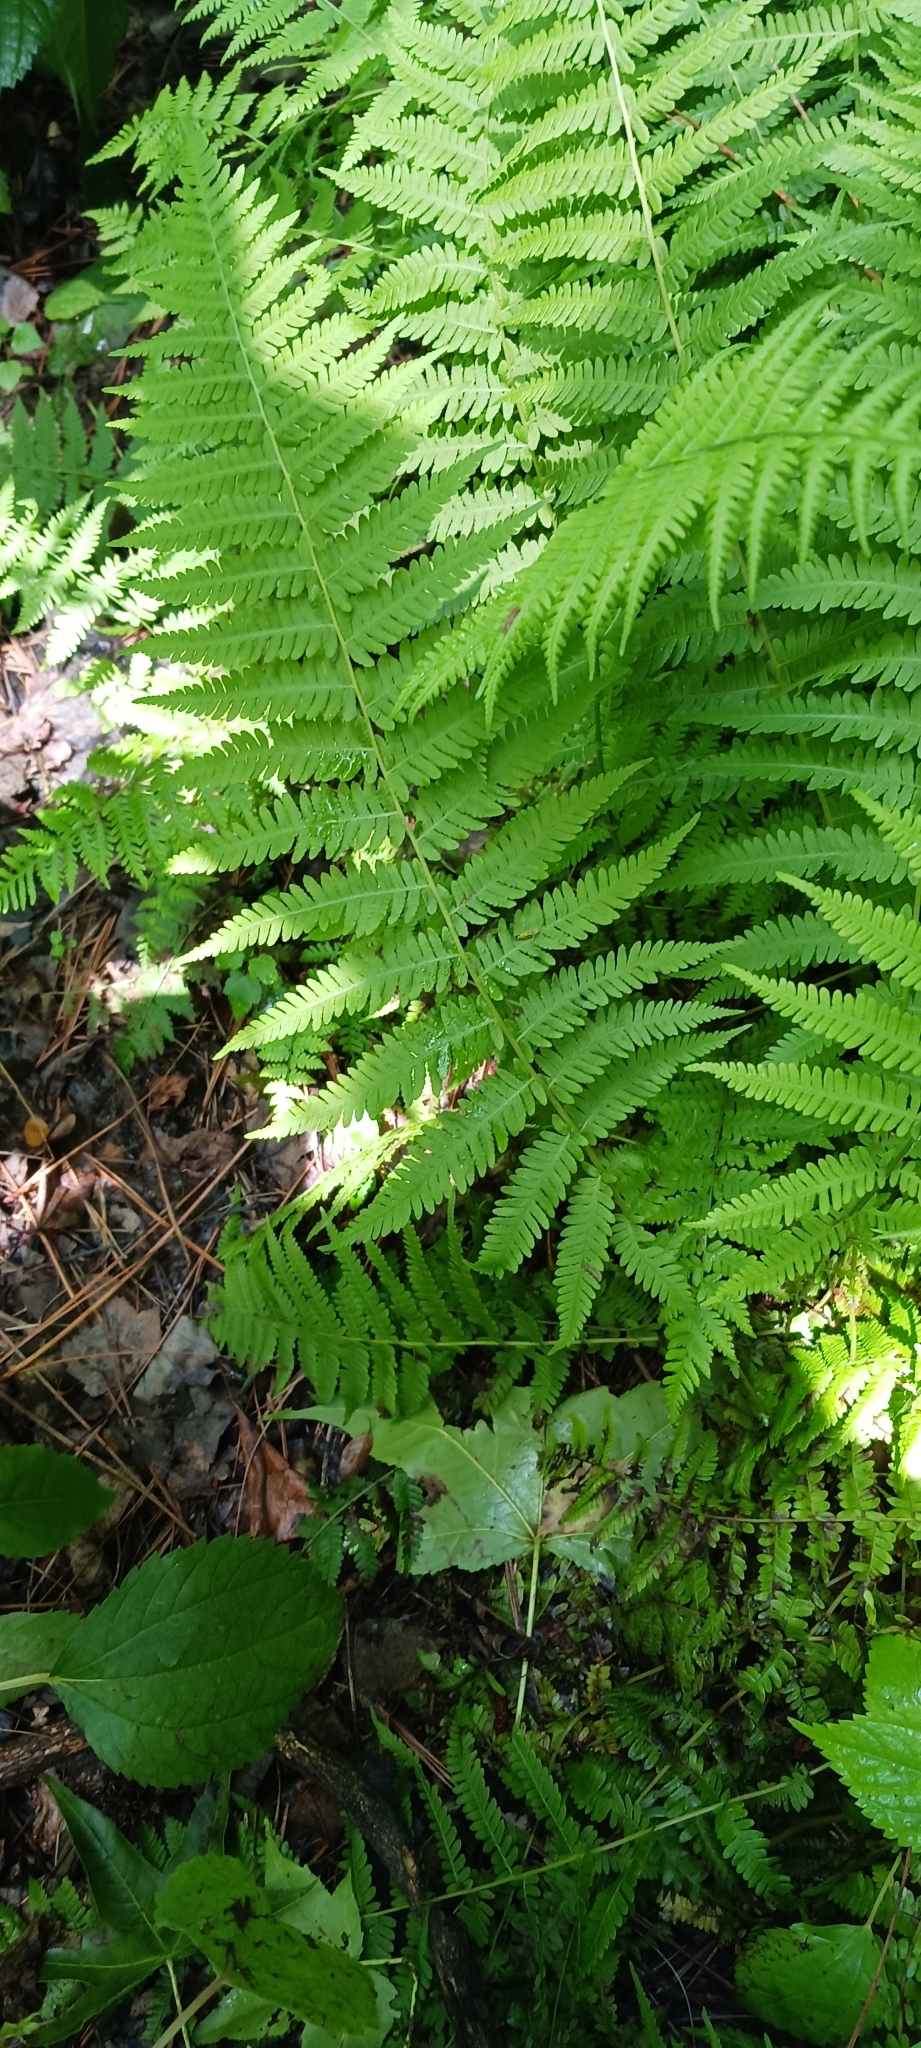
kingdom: Plantae
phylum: Tracheophyta
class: Polypodiopsida
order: Polypodiales
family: Thelypteridaceae
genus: Amauropelta
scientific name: Amauropelta noveboracensis
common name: New york fern
